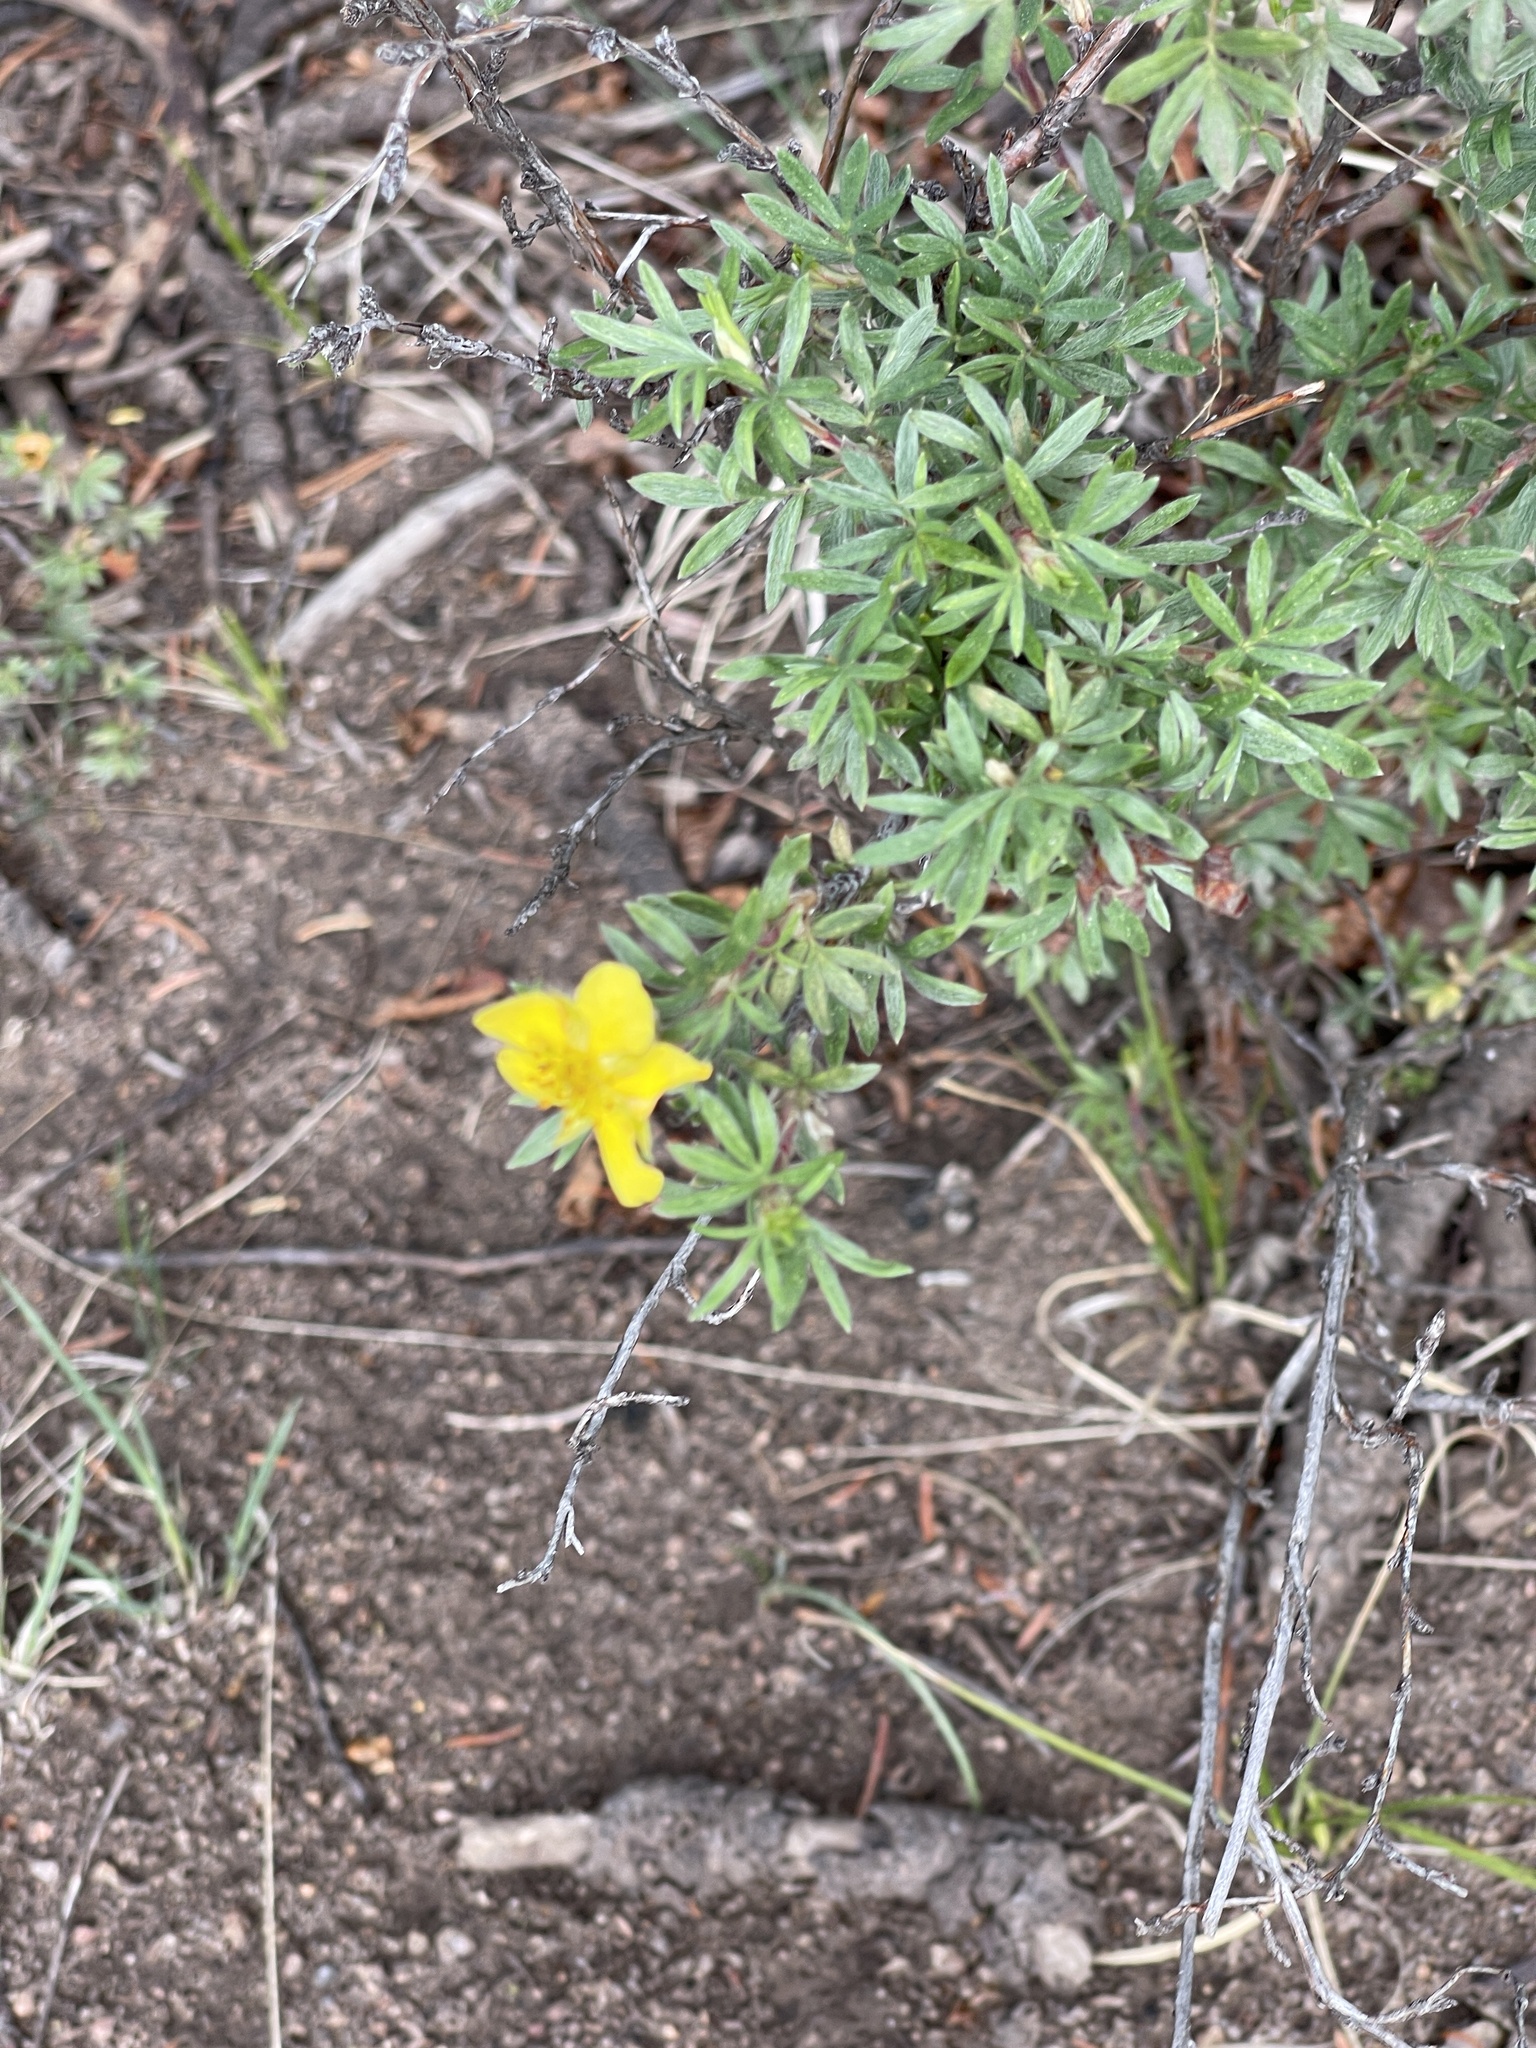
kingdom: Plantae
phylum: Tracheophyta
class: Magnoliopsida
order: Rosales
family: Rosaceae
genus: Dasiphora
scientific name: Dasiphora fruticosa
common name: Shrubby cinquefoil
